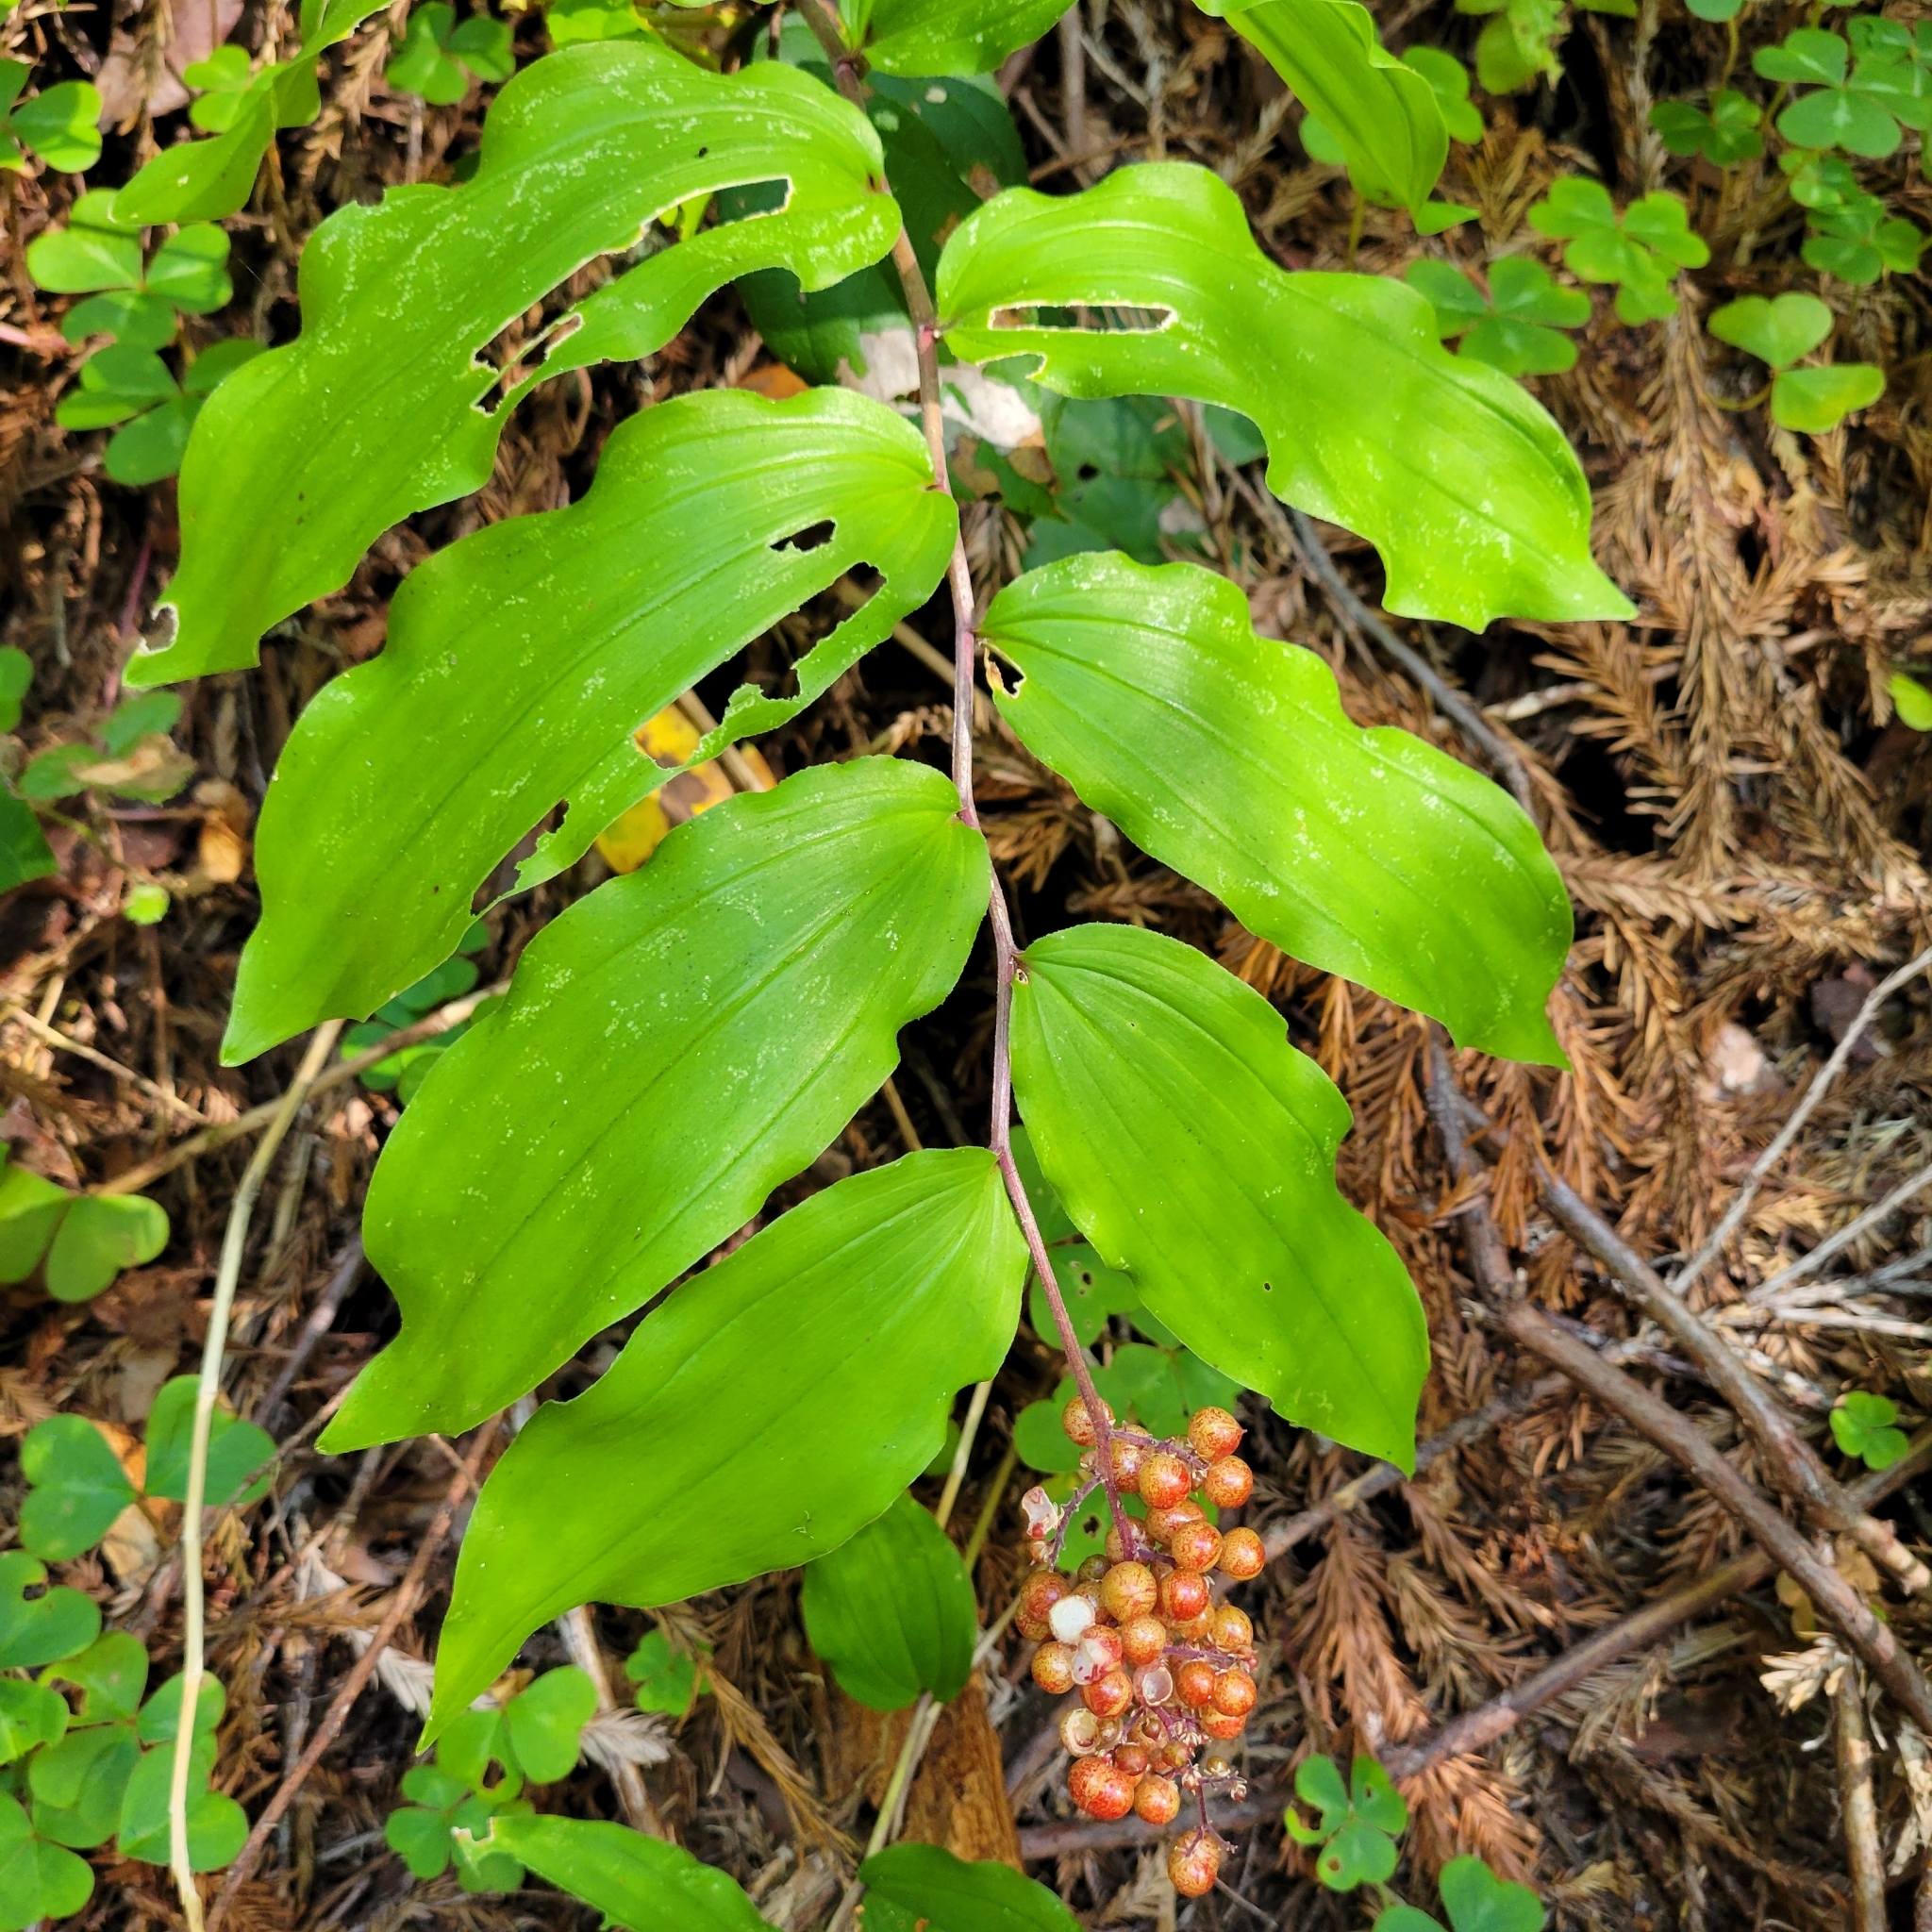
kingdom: Plantae
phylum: Tracheophyta
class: Liliopsida
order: Asparagales
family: Asparagaceae
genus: Maianthemum
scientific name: Maianthemum racemosum
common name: False spikenard
